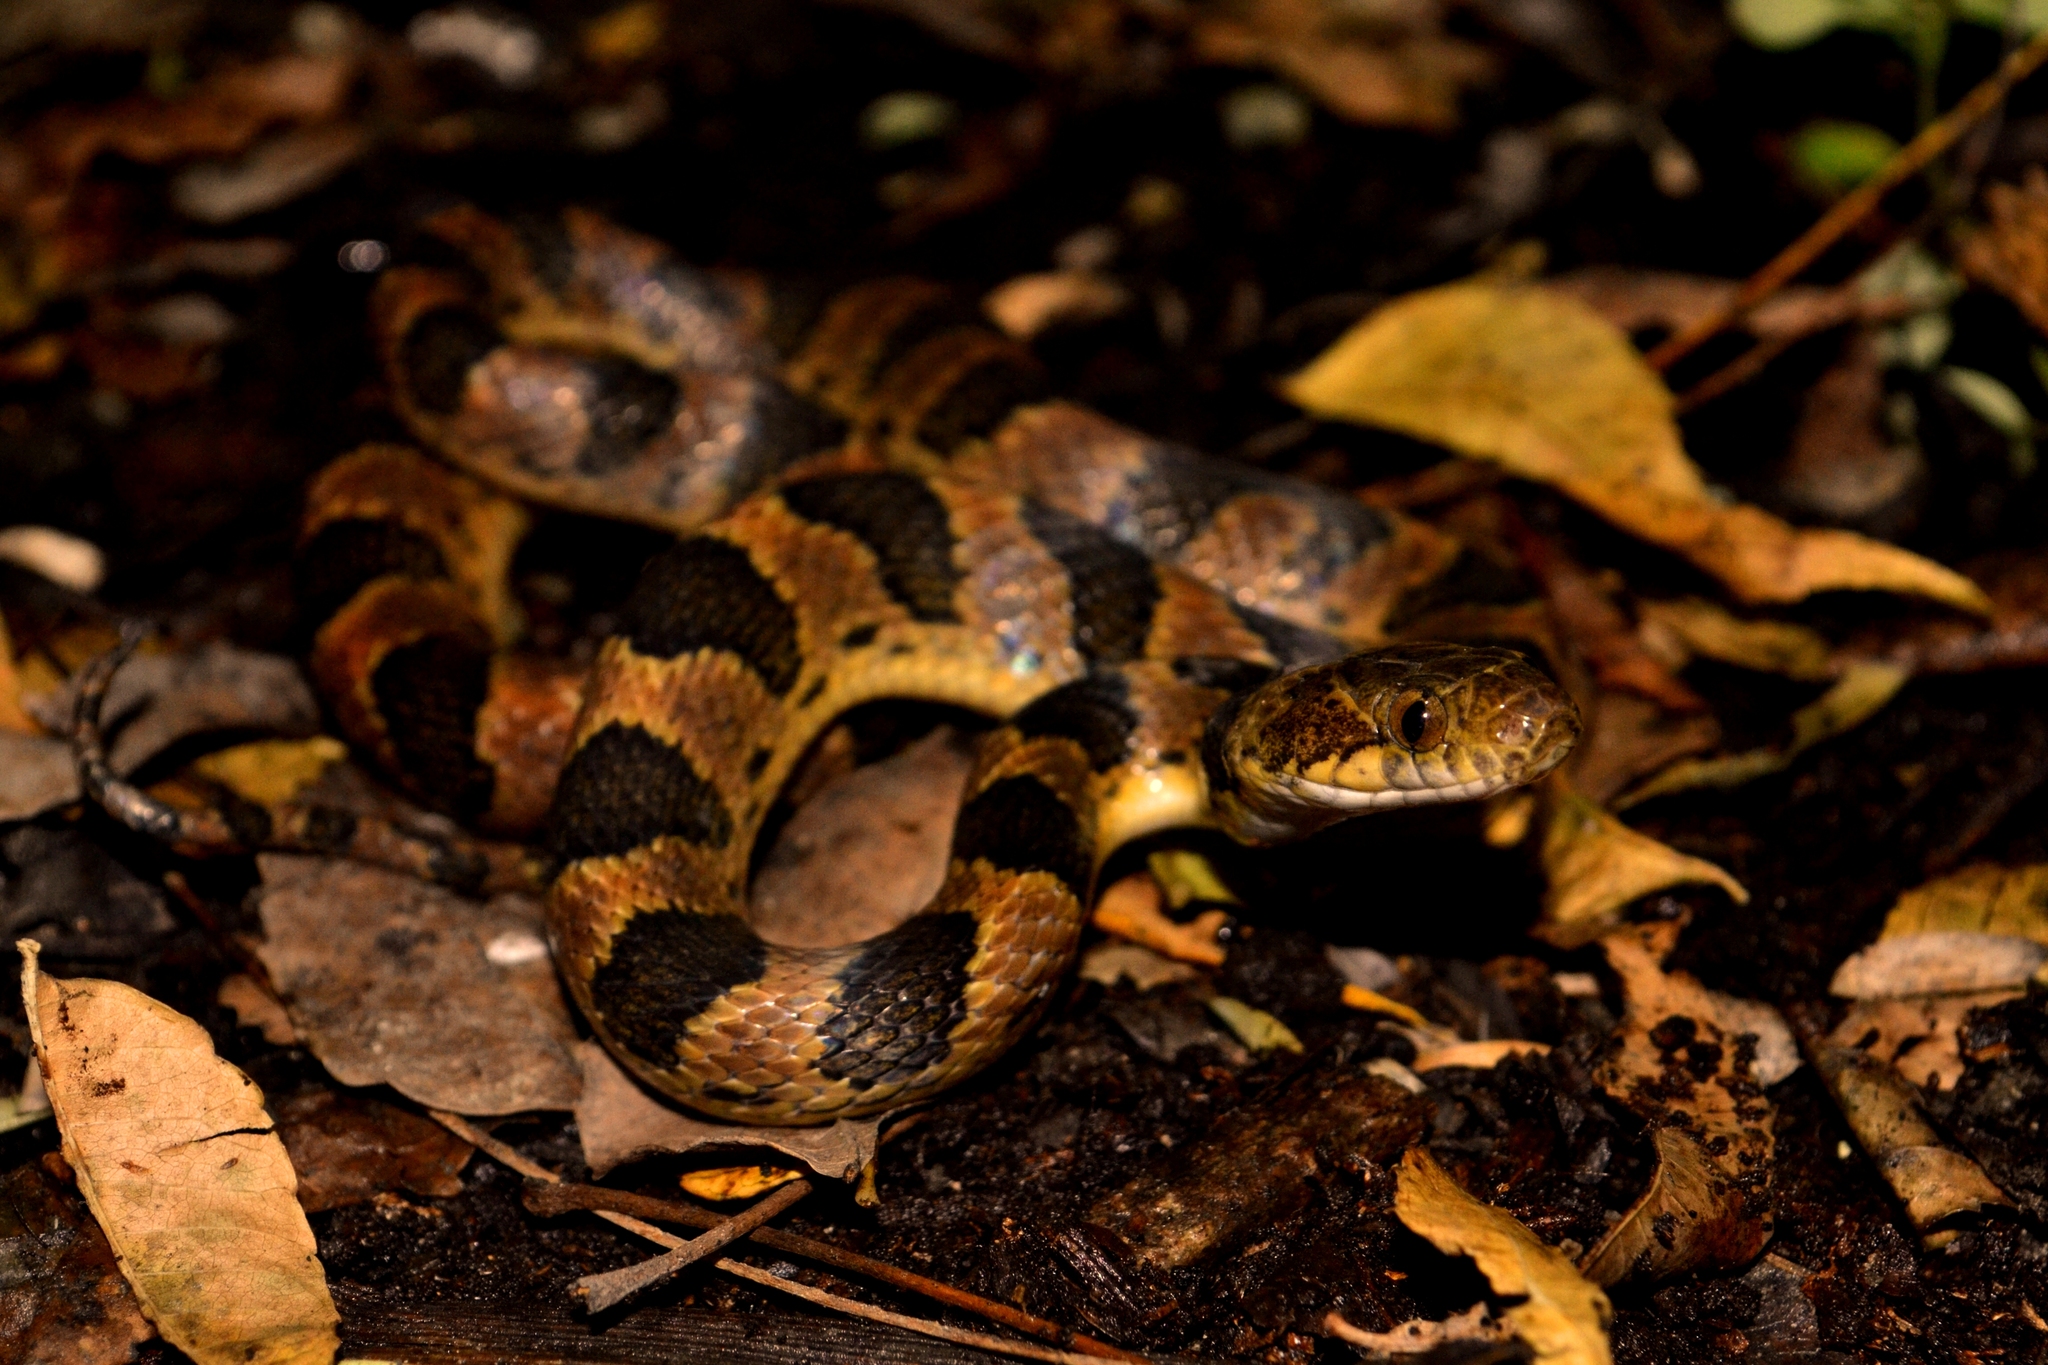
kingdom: Animalia
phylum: Chordata
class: Squamata
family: Colubridae
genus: Leptodeira
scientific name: Leptodeira annulata
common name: Banded cat-eyed snake
